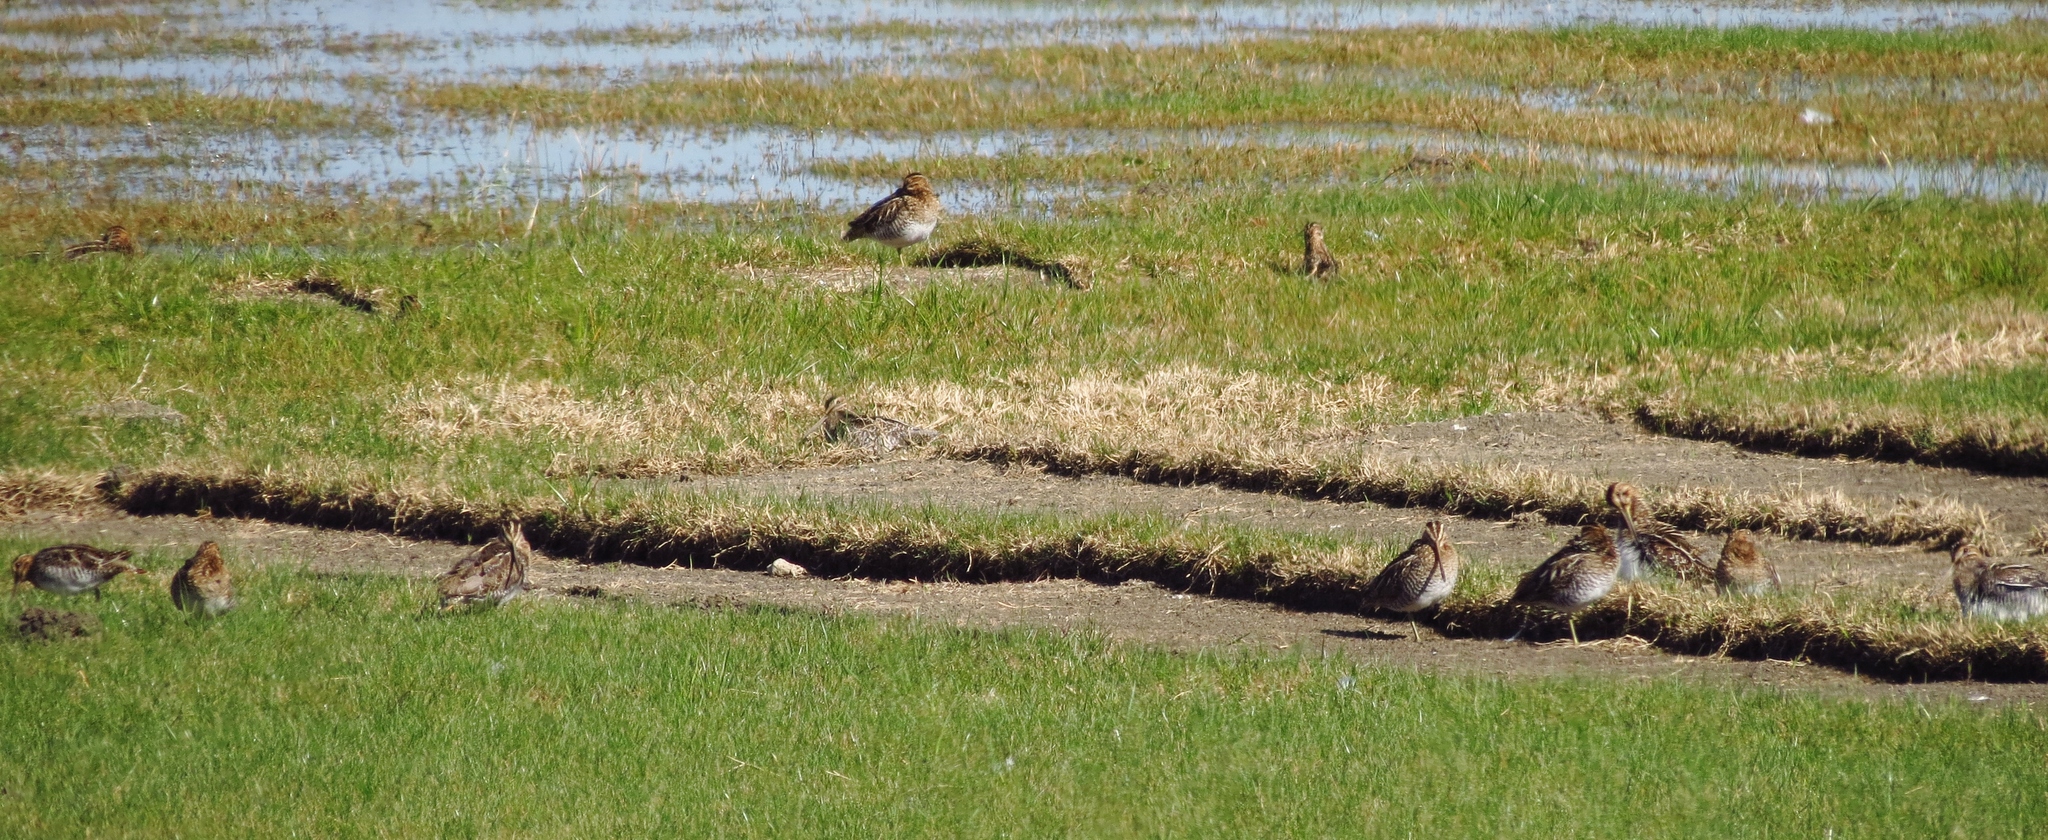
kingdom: Animalia
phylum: Chordata
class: Aves
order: Charadriiformes
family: Scolopacidae
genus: Gallinago
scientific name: Gallinago delicata
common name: Wilson's snipe
